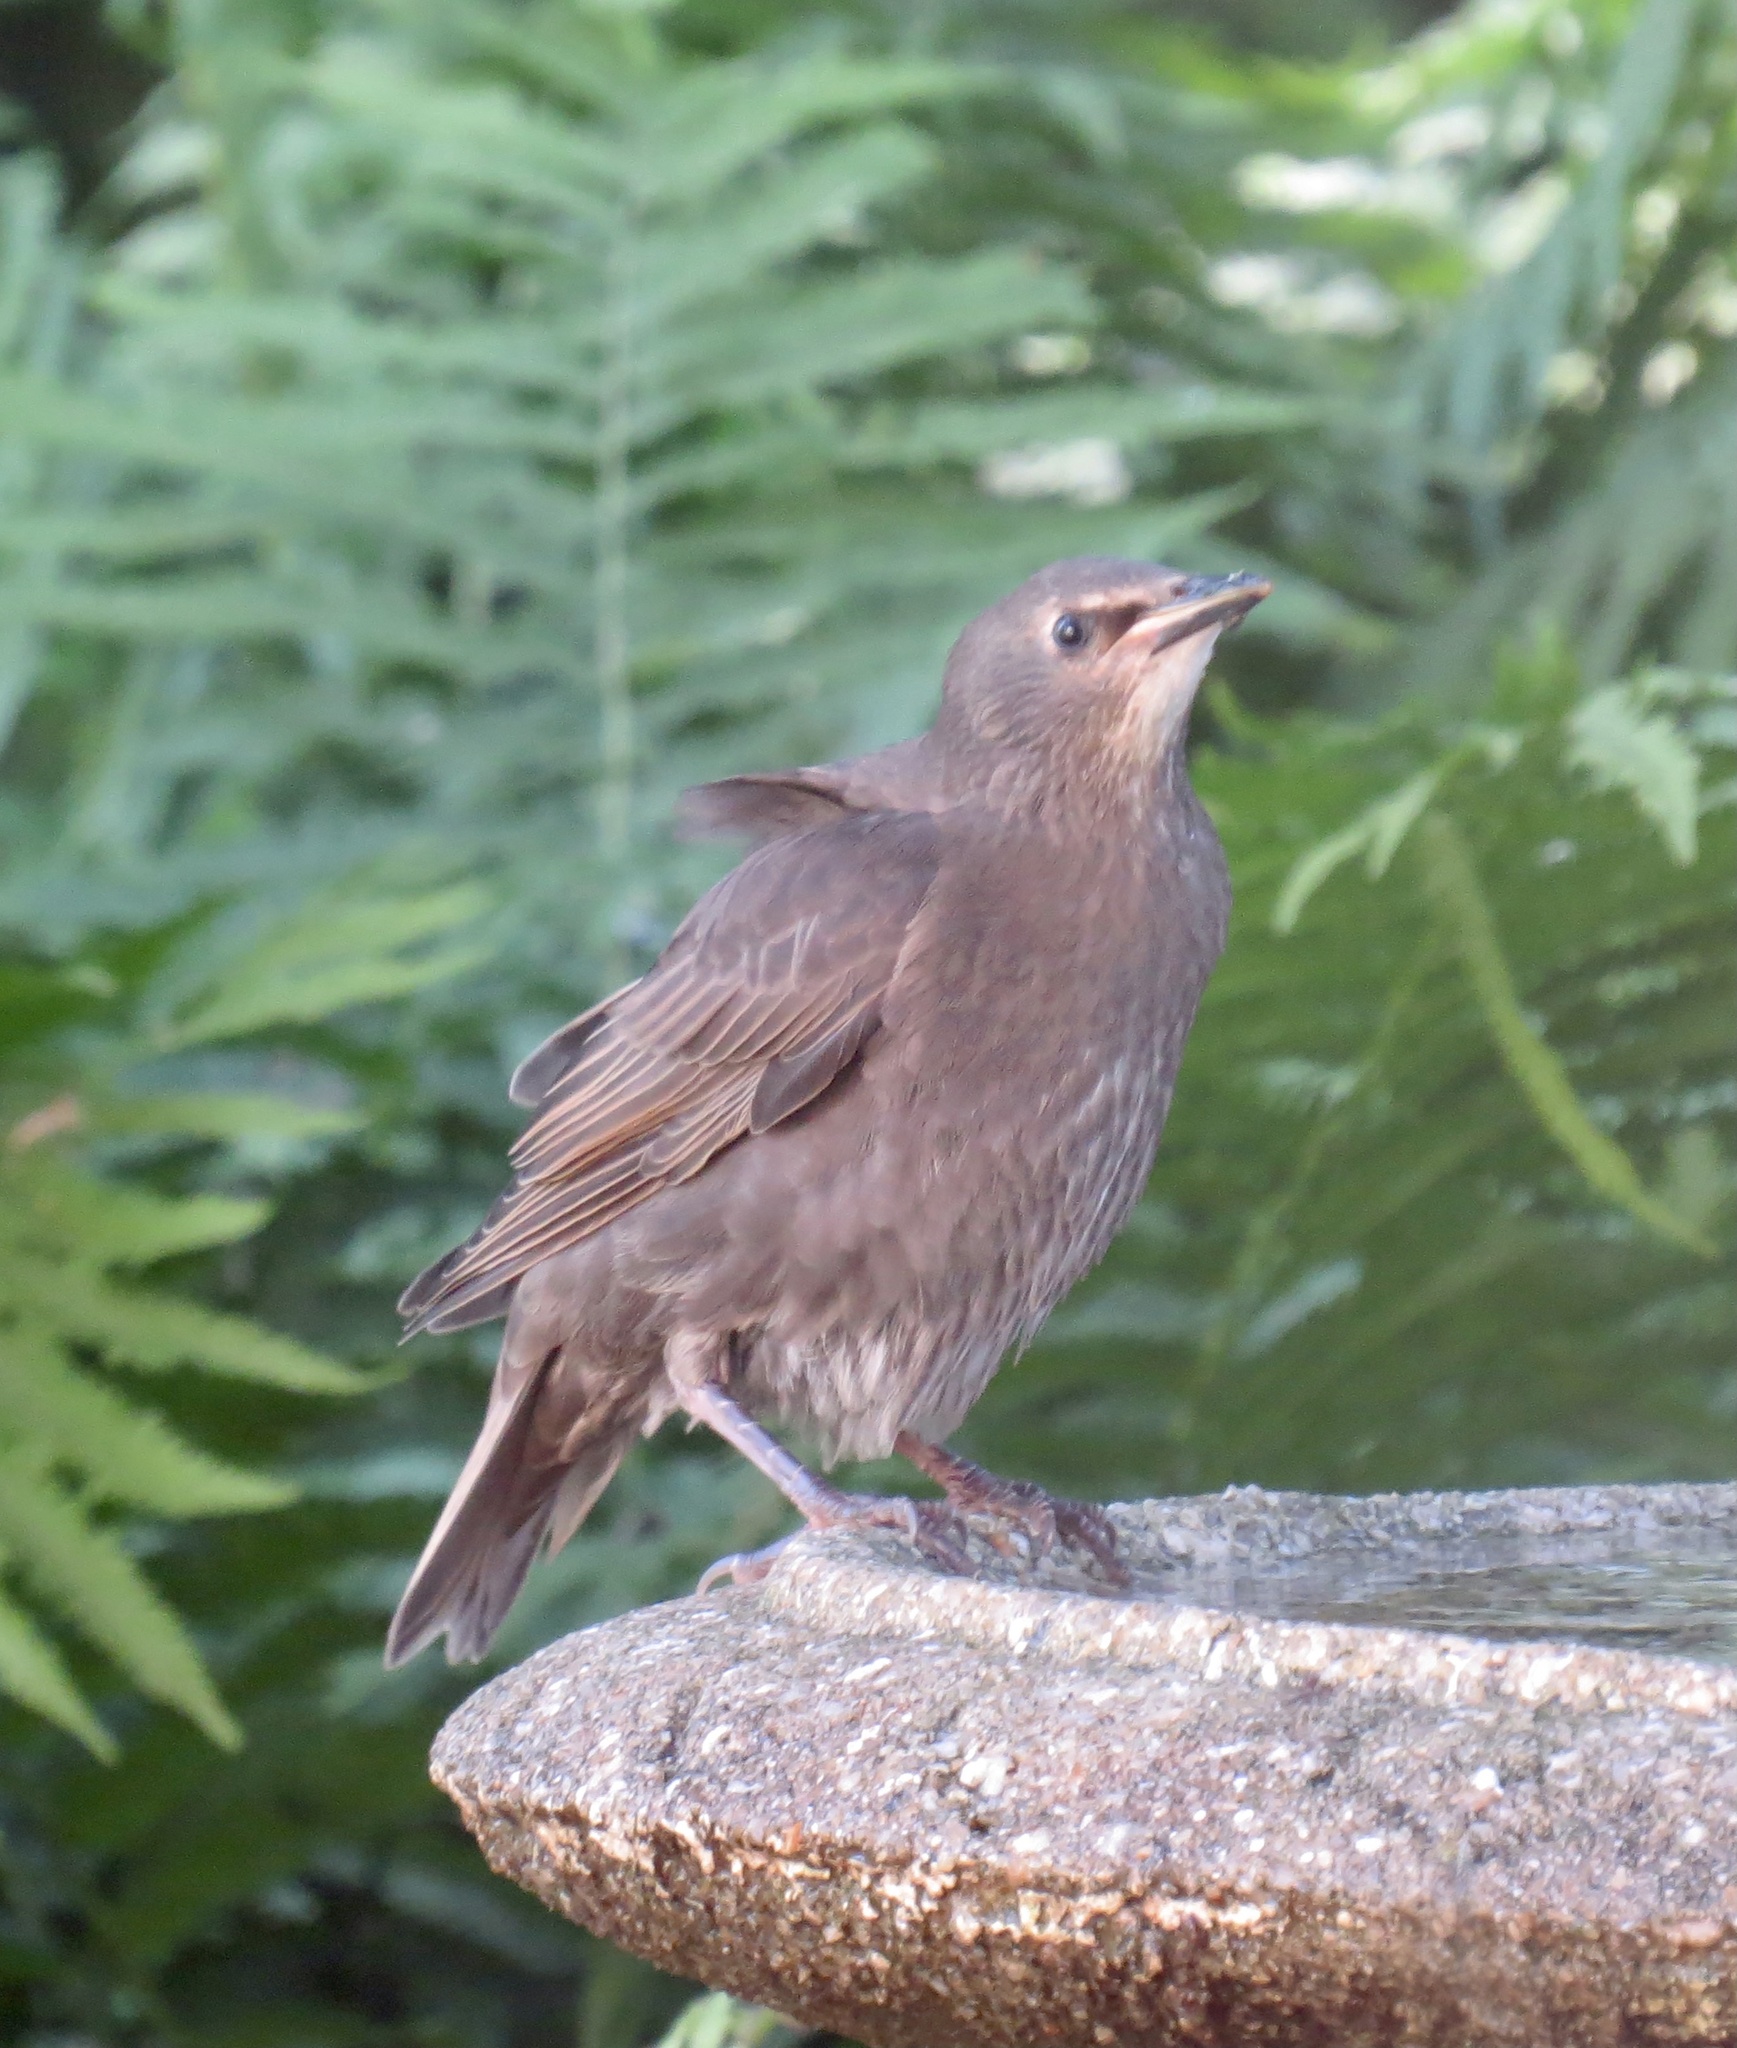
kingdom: Animalia
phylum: Chordata
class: Aves
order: Passeriformes
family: Sturnidae
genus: Sturnus
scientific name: Sturnus vulgaris
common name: Common starling
